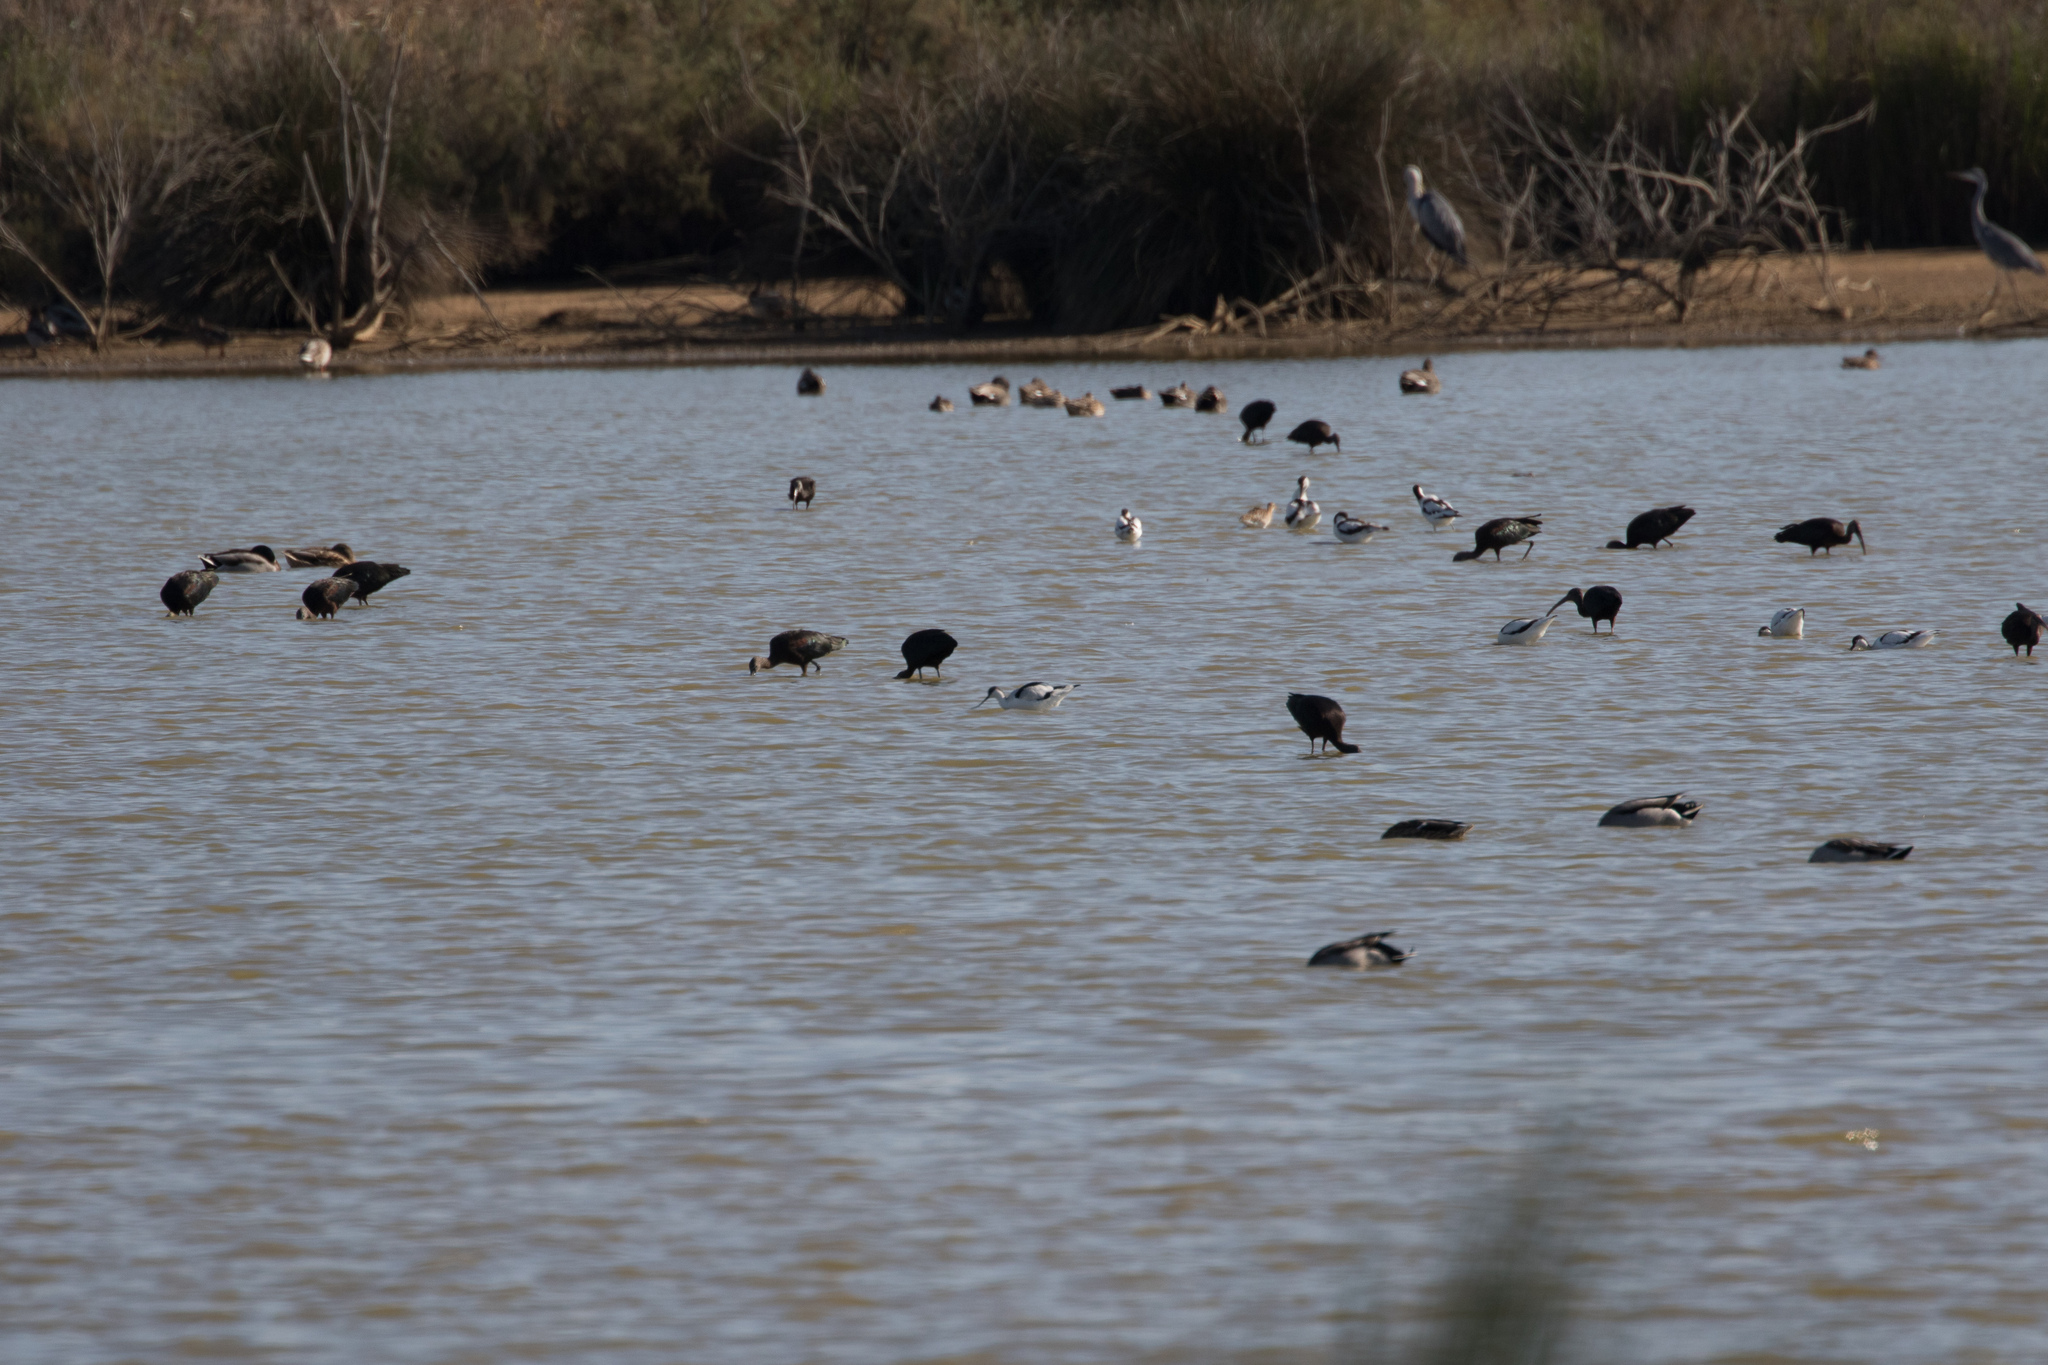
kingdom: Animalia
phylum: Chordata
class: Aves
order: Charadriiformes
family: Recurvirostridae
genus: Recurvirostra
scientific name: Recurvirostra avosetta
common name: Pied avocet
